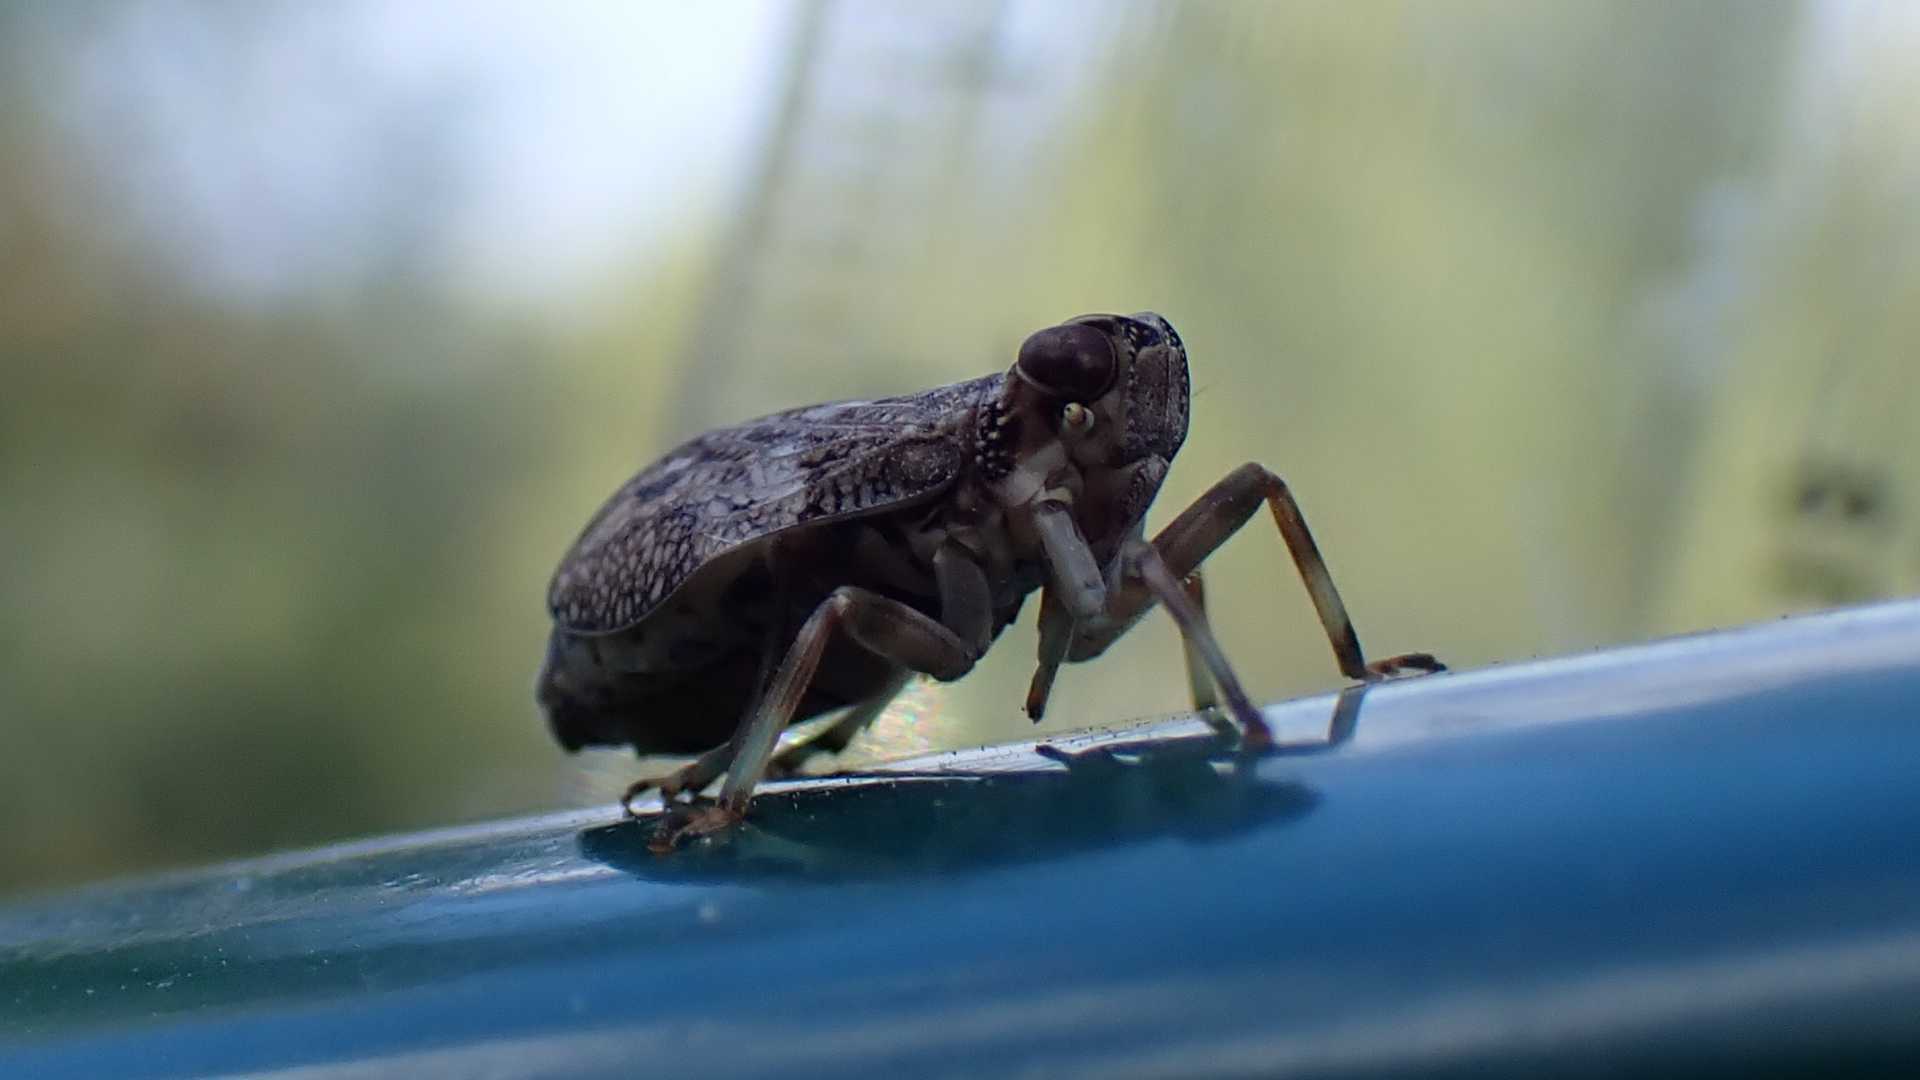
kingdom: Animalia
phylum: Arthropoda
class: Insecta
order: Hemiptera
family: Issidae
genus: Issus
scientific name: Issus coleoptratus
